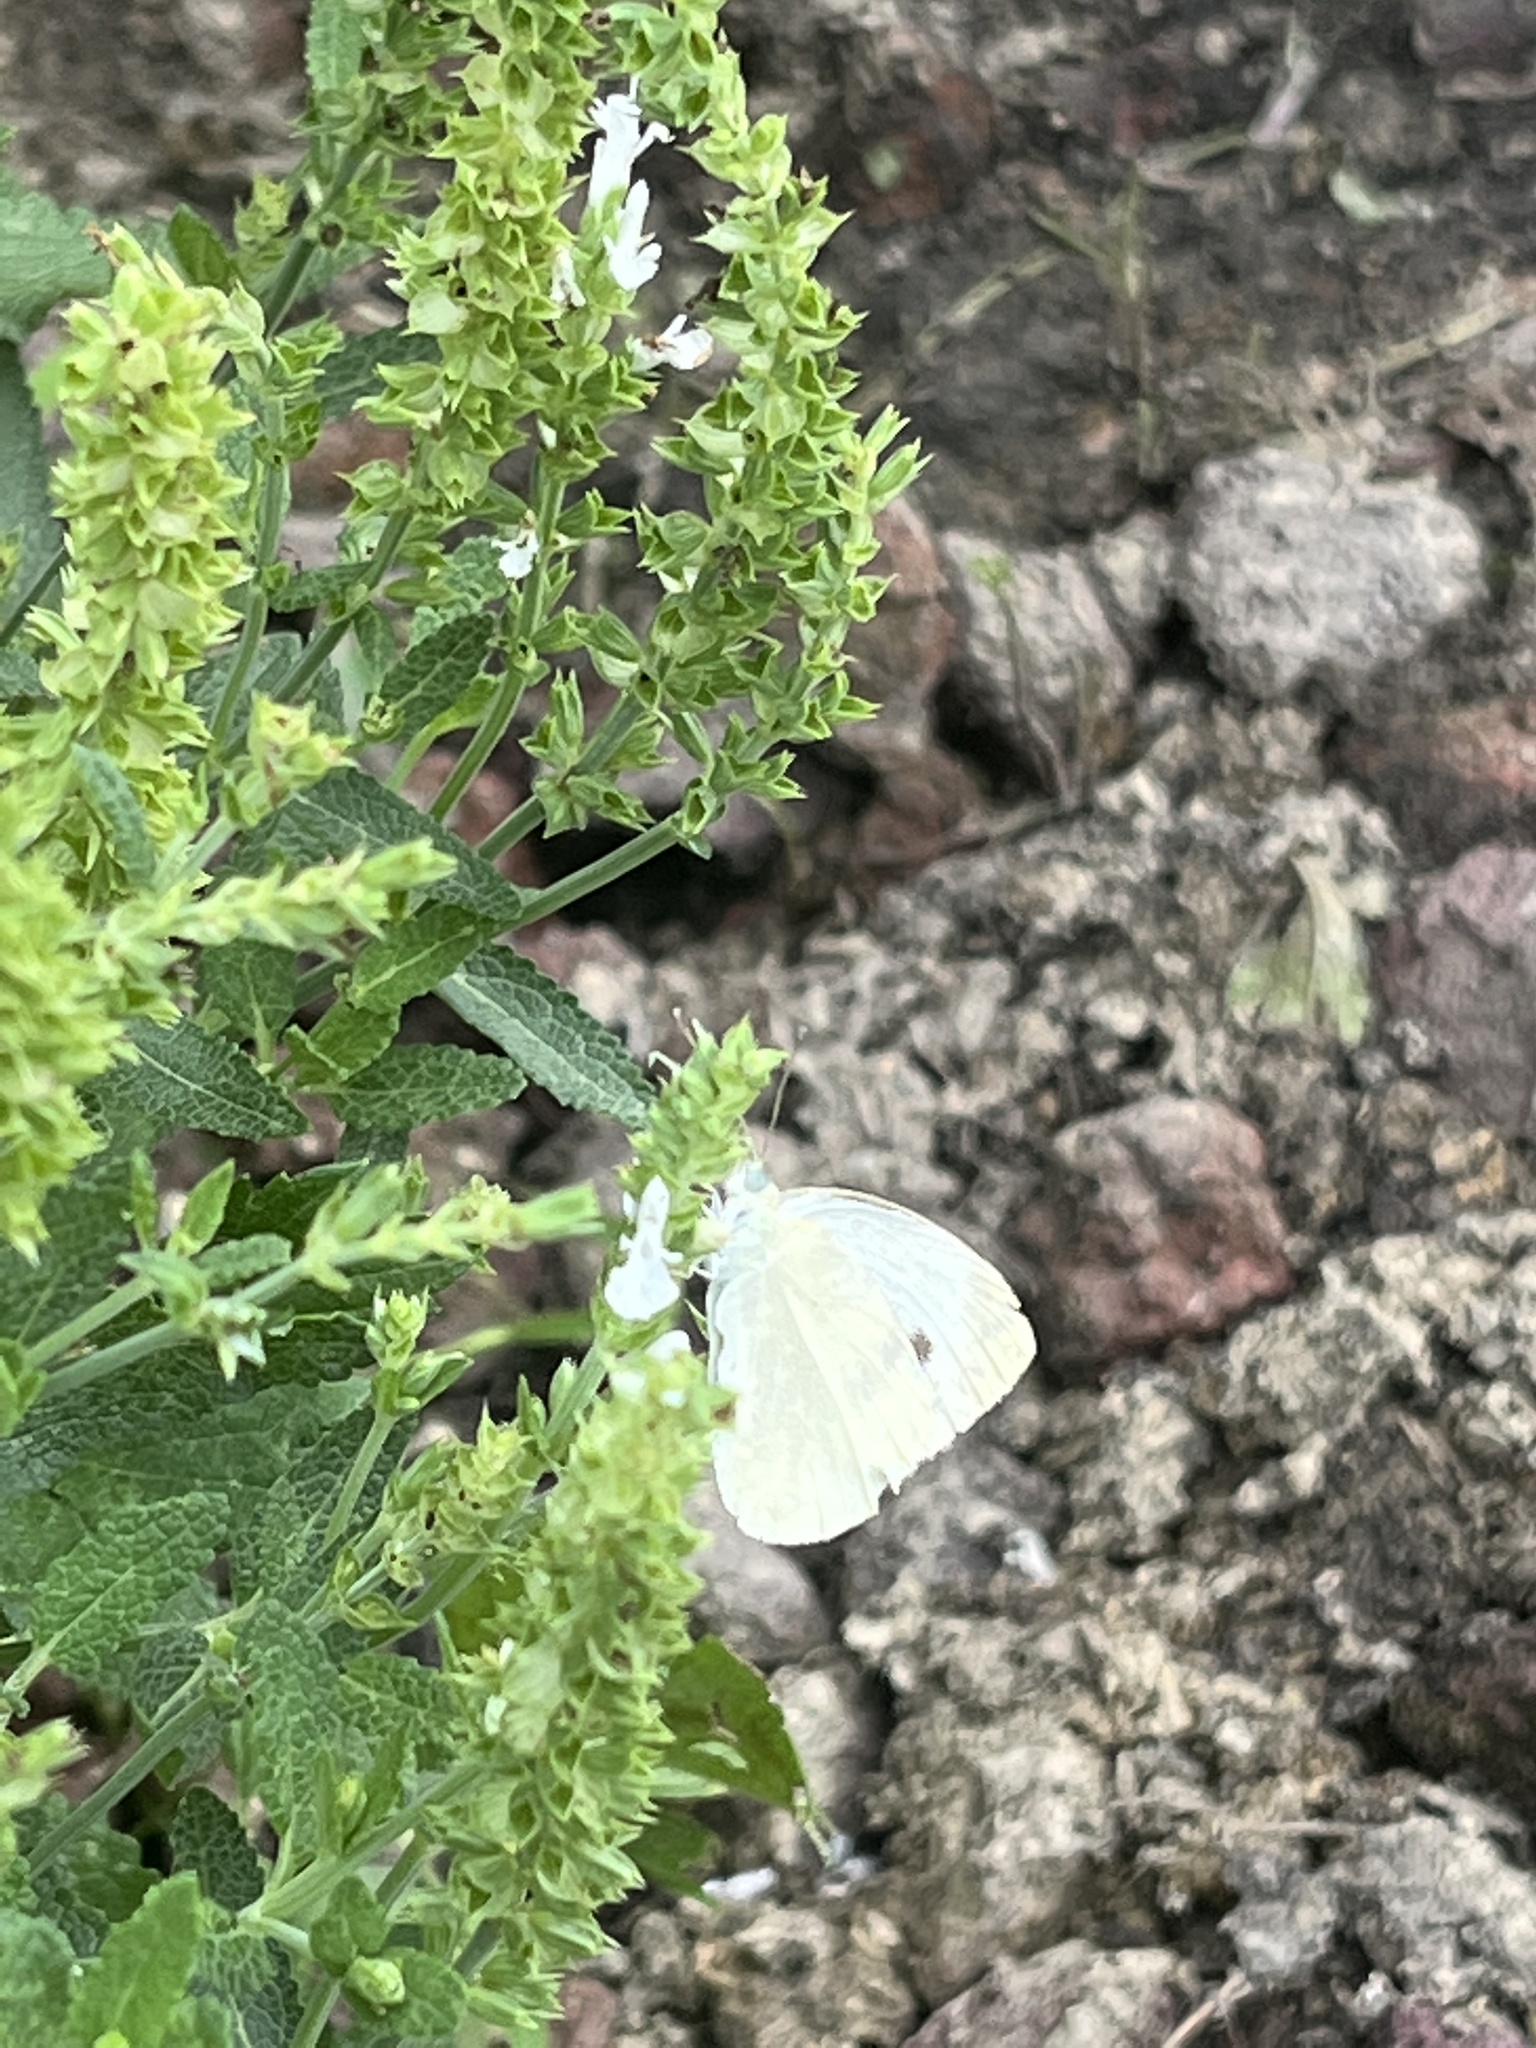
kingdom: Animalia
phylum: Arthropoda
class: Insecta
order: Lepidoptera
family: Pieridae
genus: Pieris
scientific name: Pieris rapae
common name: Small white
